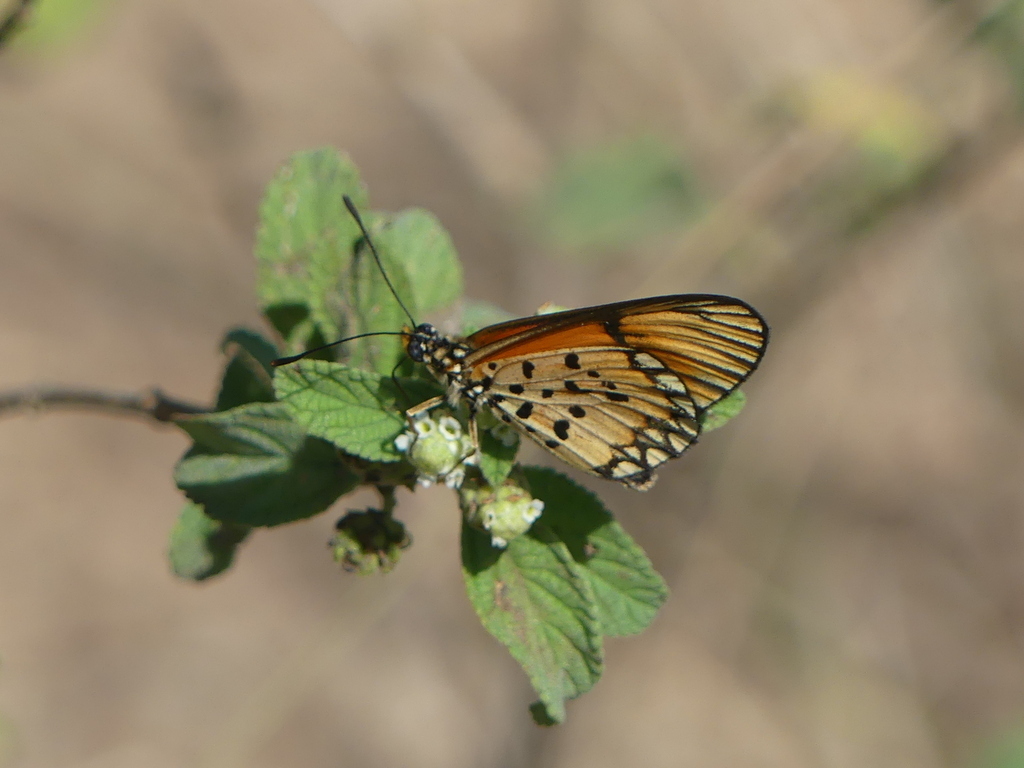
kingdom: Animalia
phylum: Arthropoda
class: Insecta
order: Lepidoptera
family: Nymphalidae
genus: Acraea
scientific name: Acraea Telchinia serena
